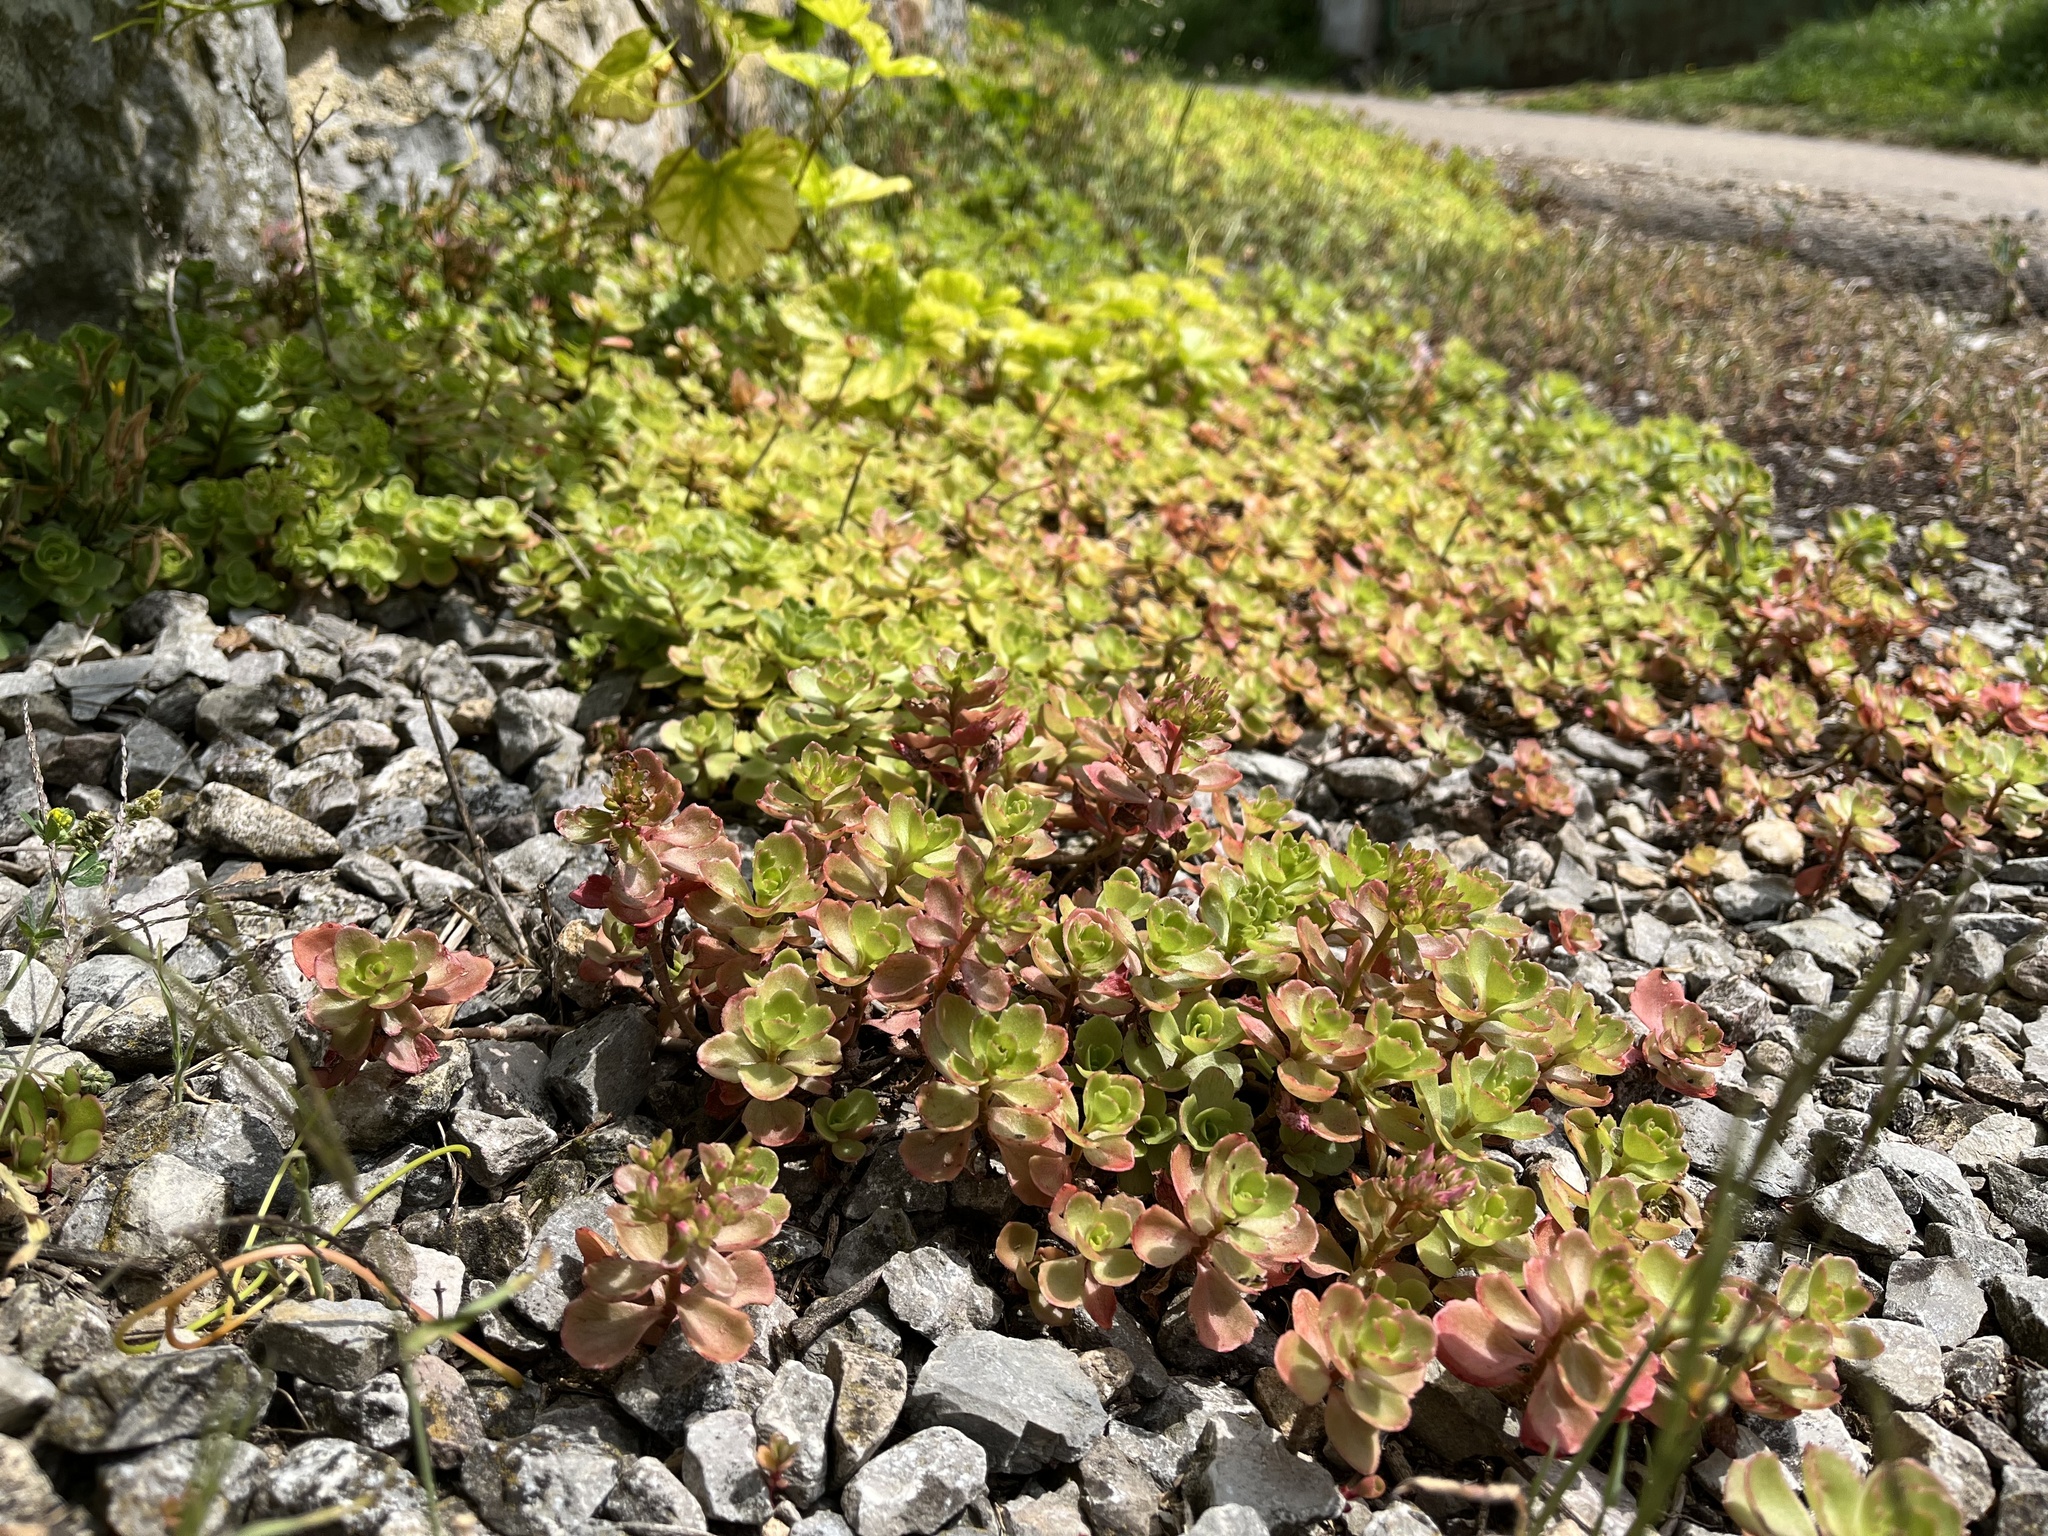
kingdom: Plantae
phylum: Tracheophyta
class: Magnoliopsida
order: Saxifragales
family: Crassulaceae
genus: Phedimus
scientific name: Phedimus spurius
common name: Caucasian stonecrop
